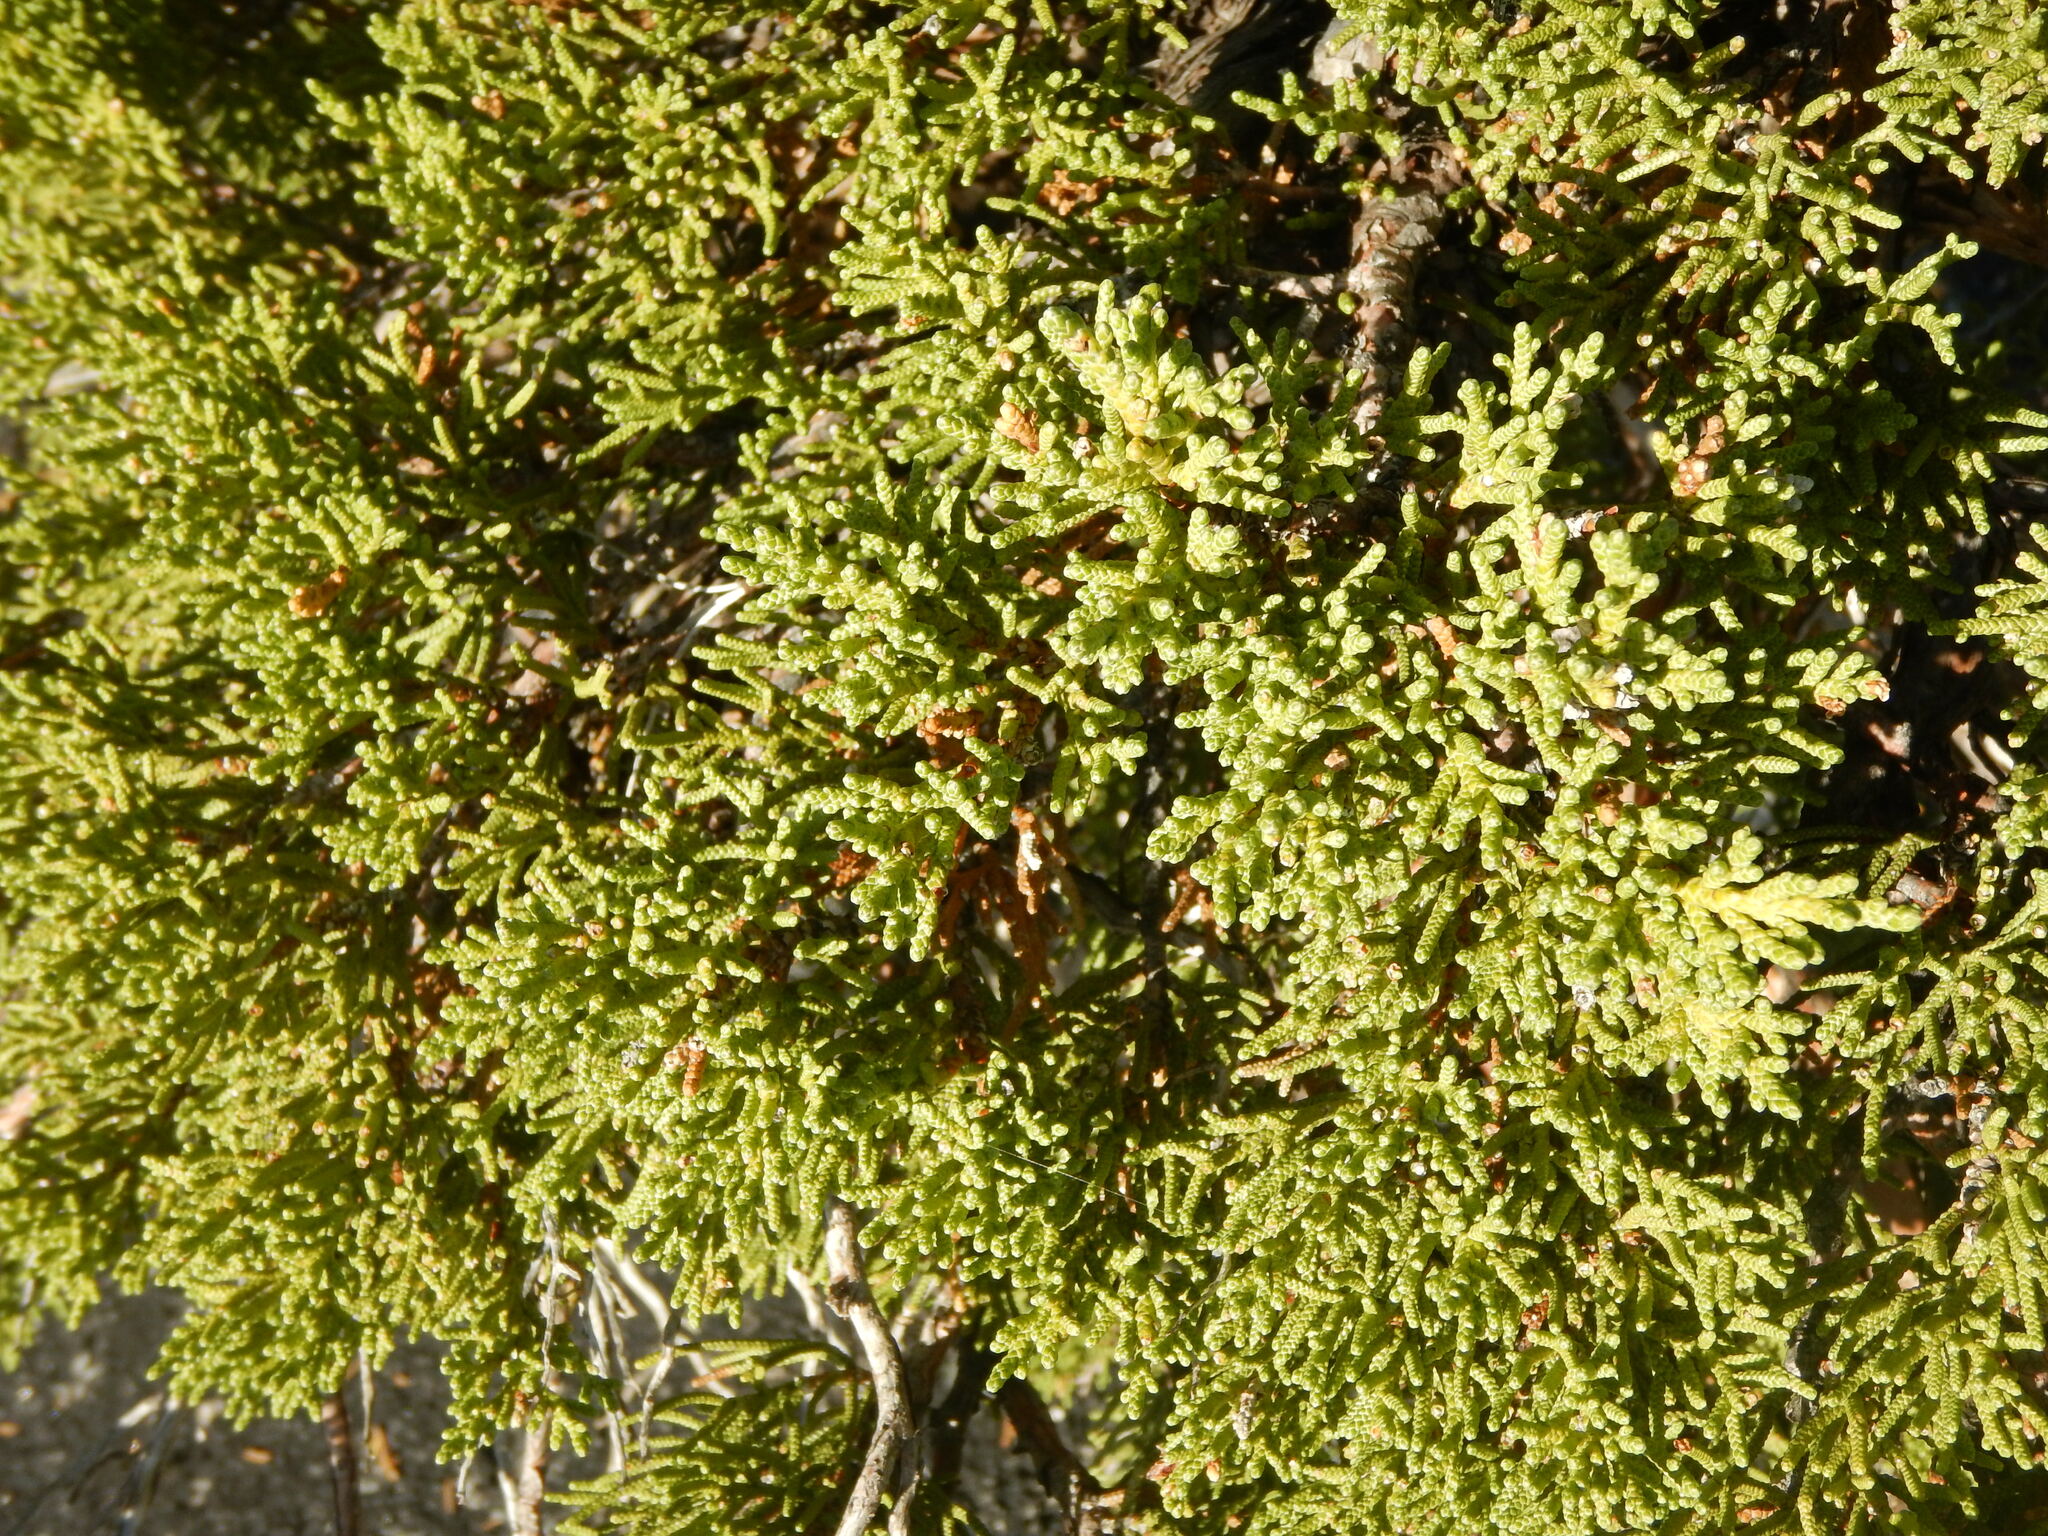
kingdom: Plantae
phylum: Tracheophyta
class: Pinopsida
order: Pinales
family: Cupressaceae
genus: Juniperus
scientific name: Juniperus occidentalis
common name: Western juniper
